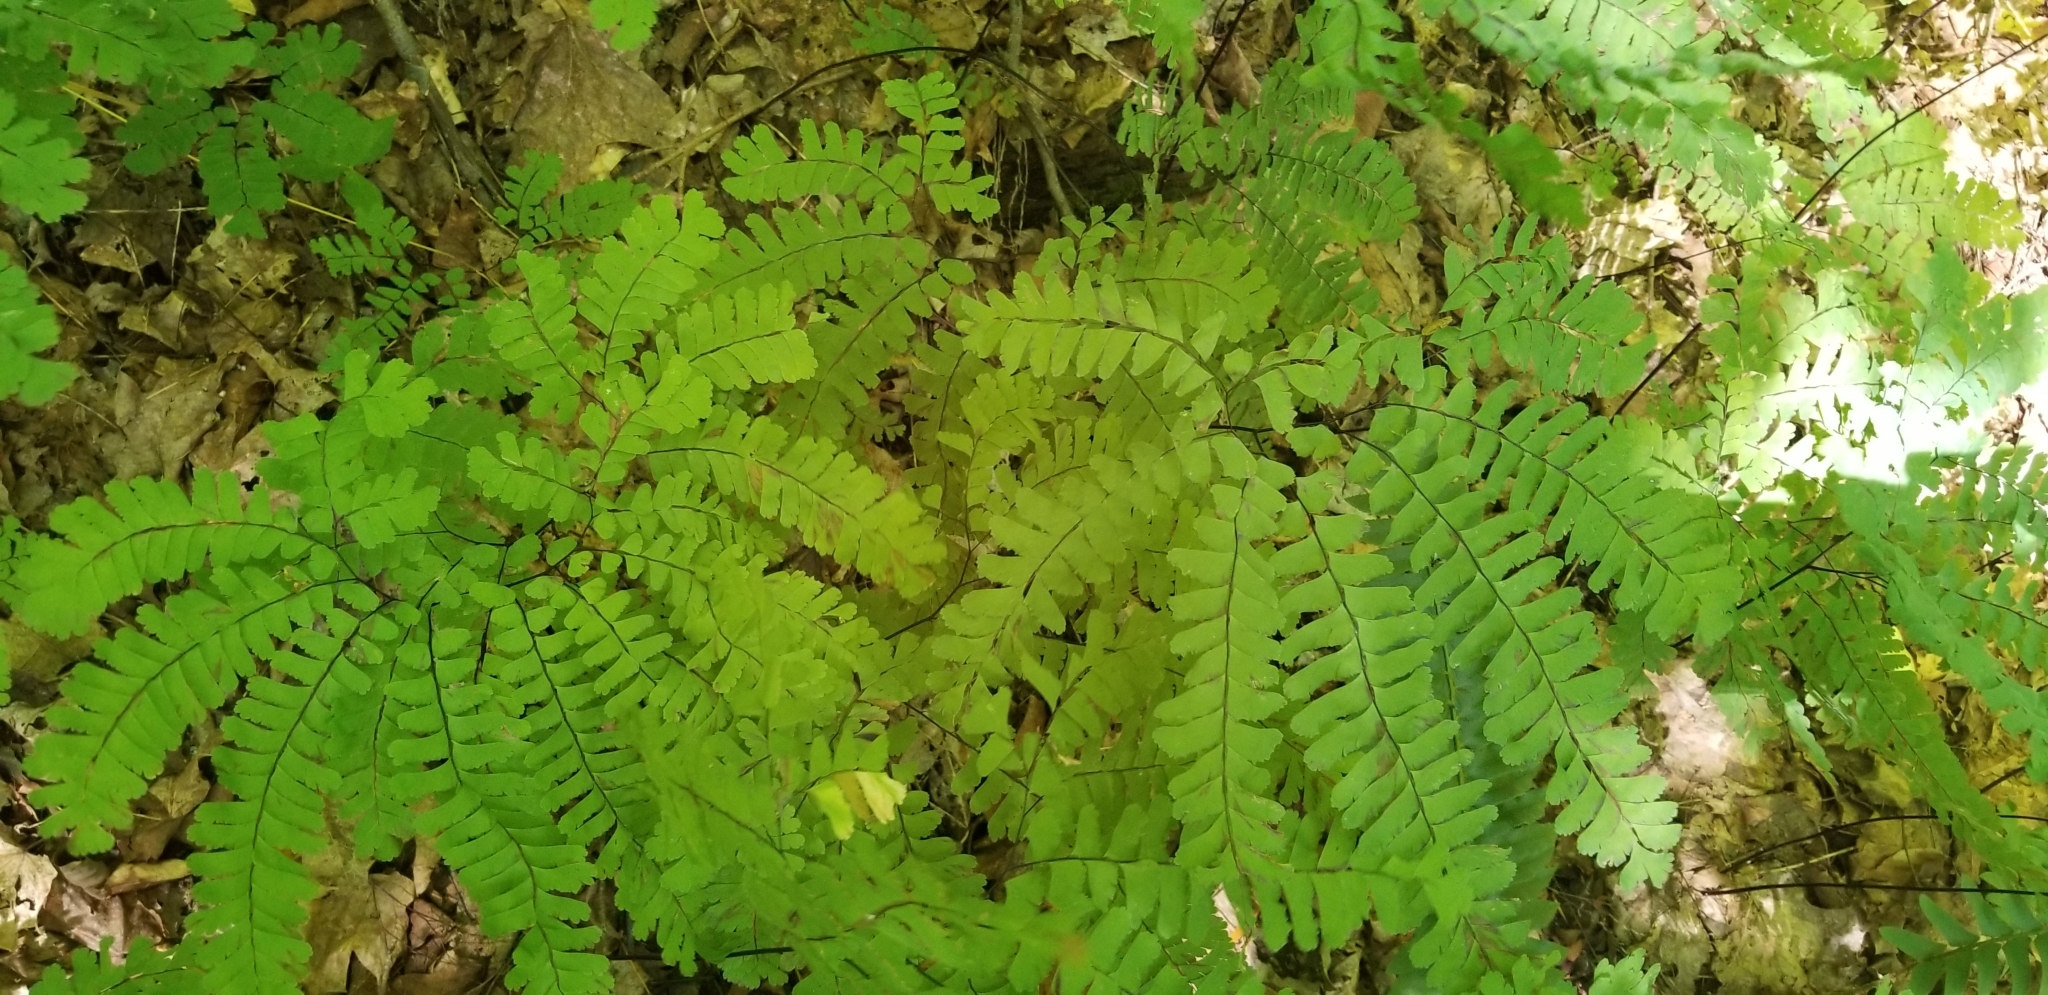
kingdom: Plantae
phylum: Tracheophyta
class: Polypodiopsida
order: Polypodiales
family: Pteridaceae
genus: Adiantum
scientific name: Adiantum pedatum
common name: Five-finger fern
